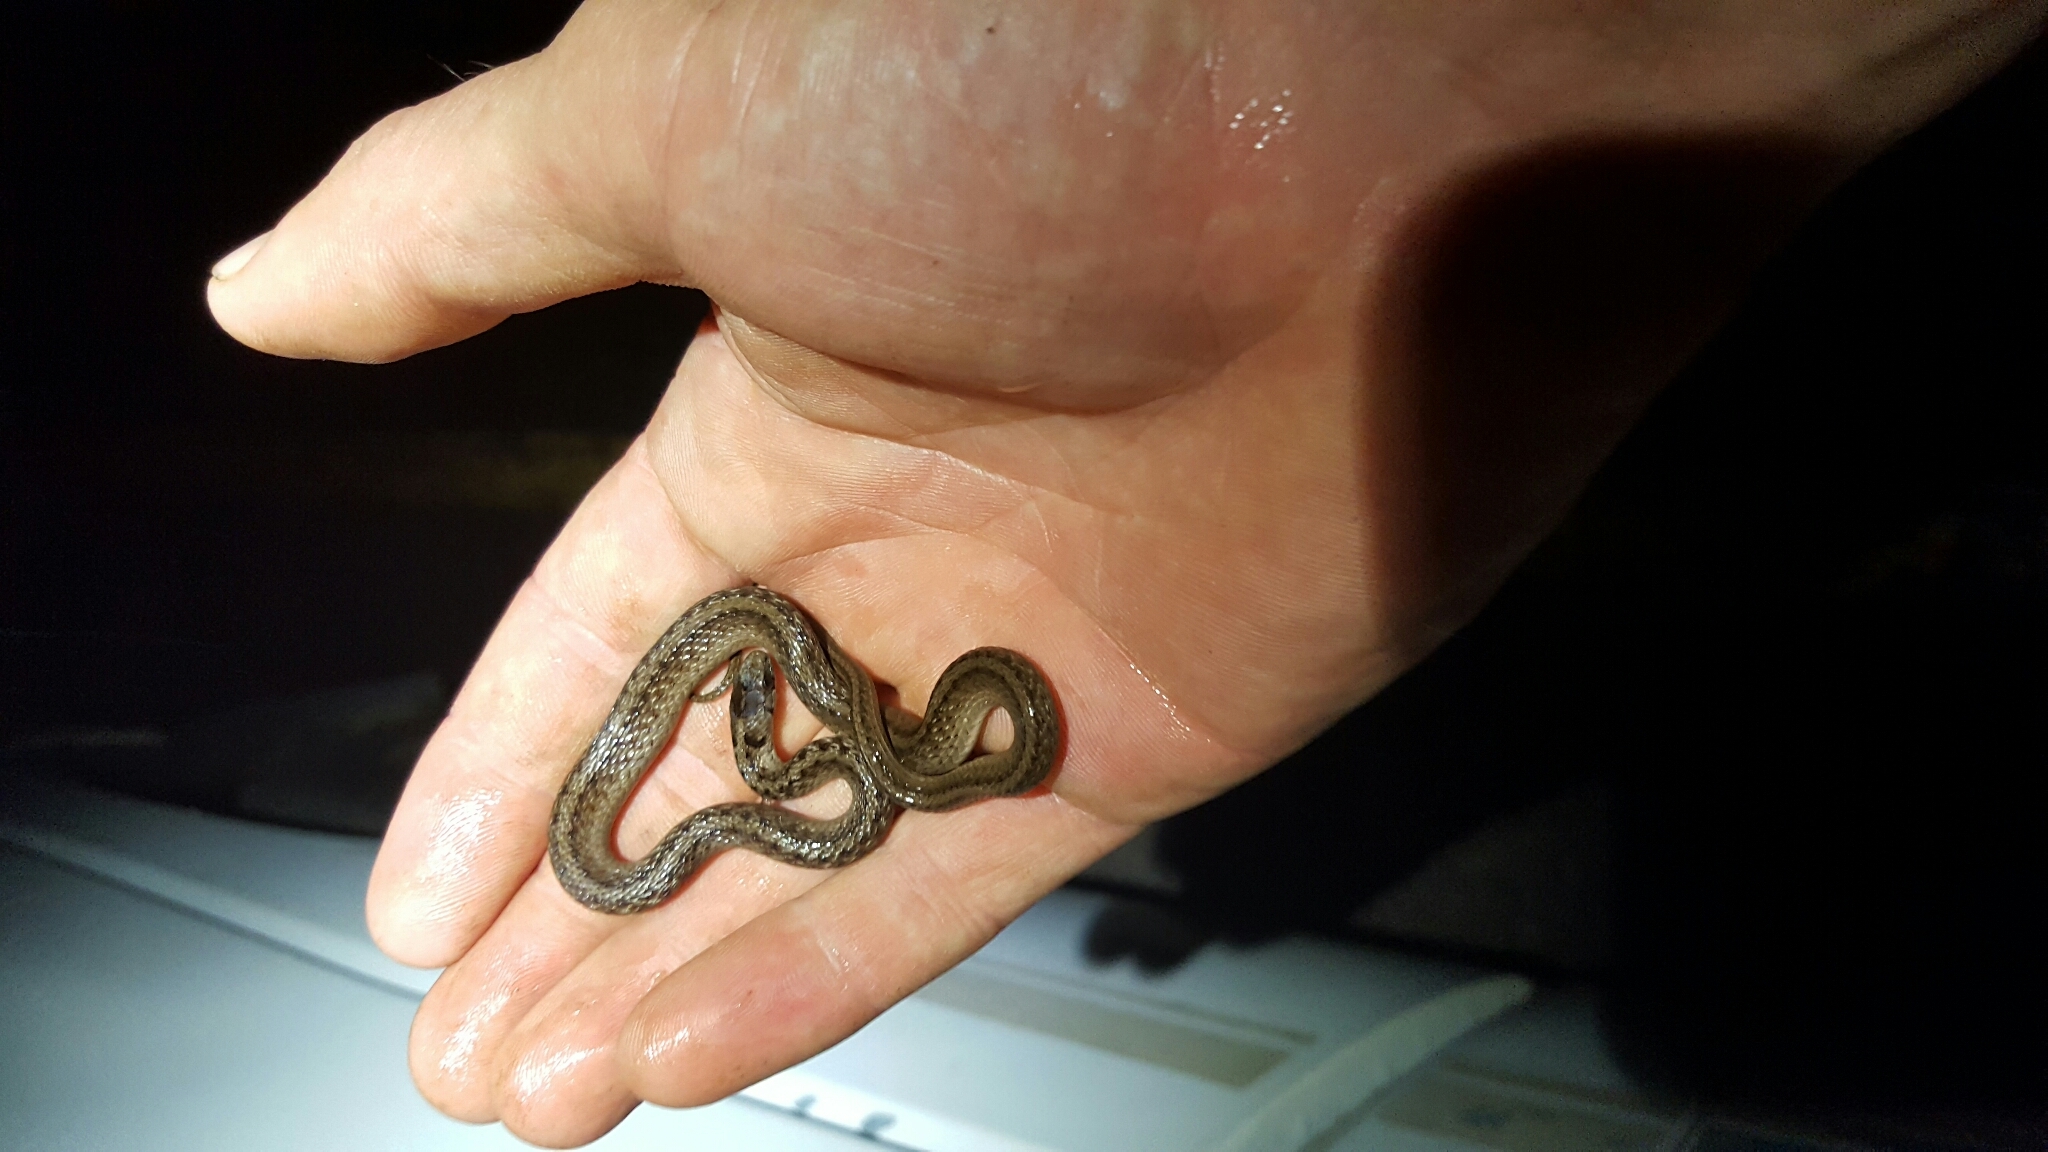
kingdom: Animalia
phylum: Chordata
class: Squamata
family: Colubridae
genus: Storeria
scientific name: Storeria dekayi
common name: (dekay’s) brown snake
